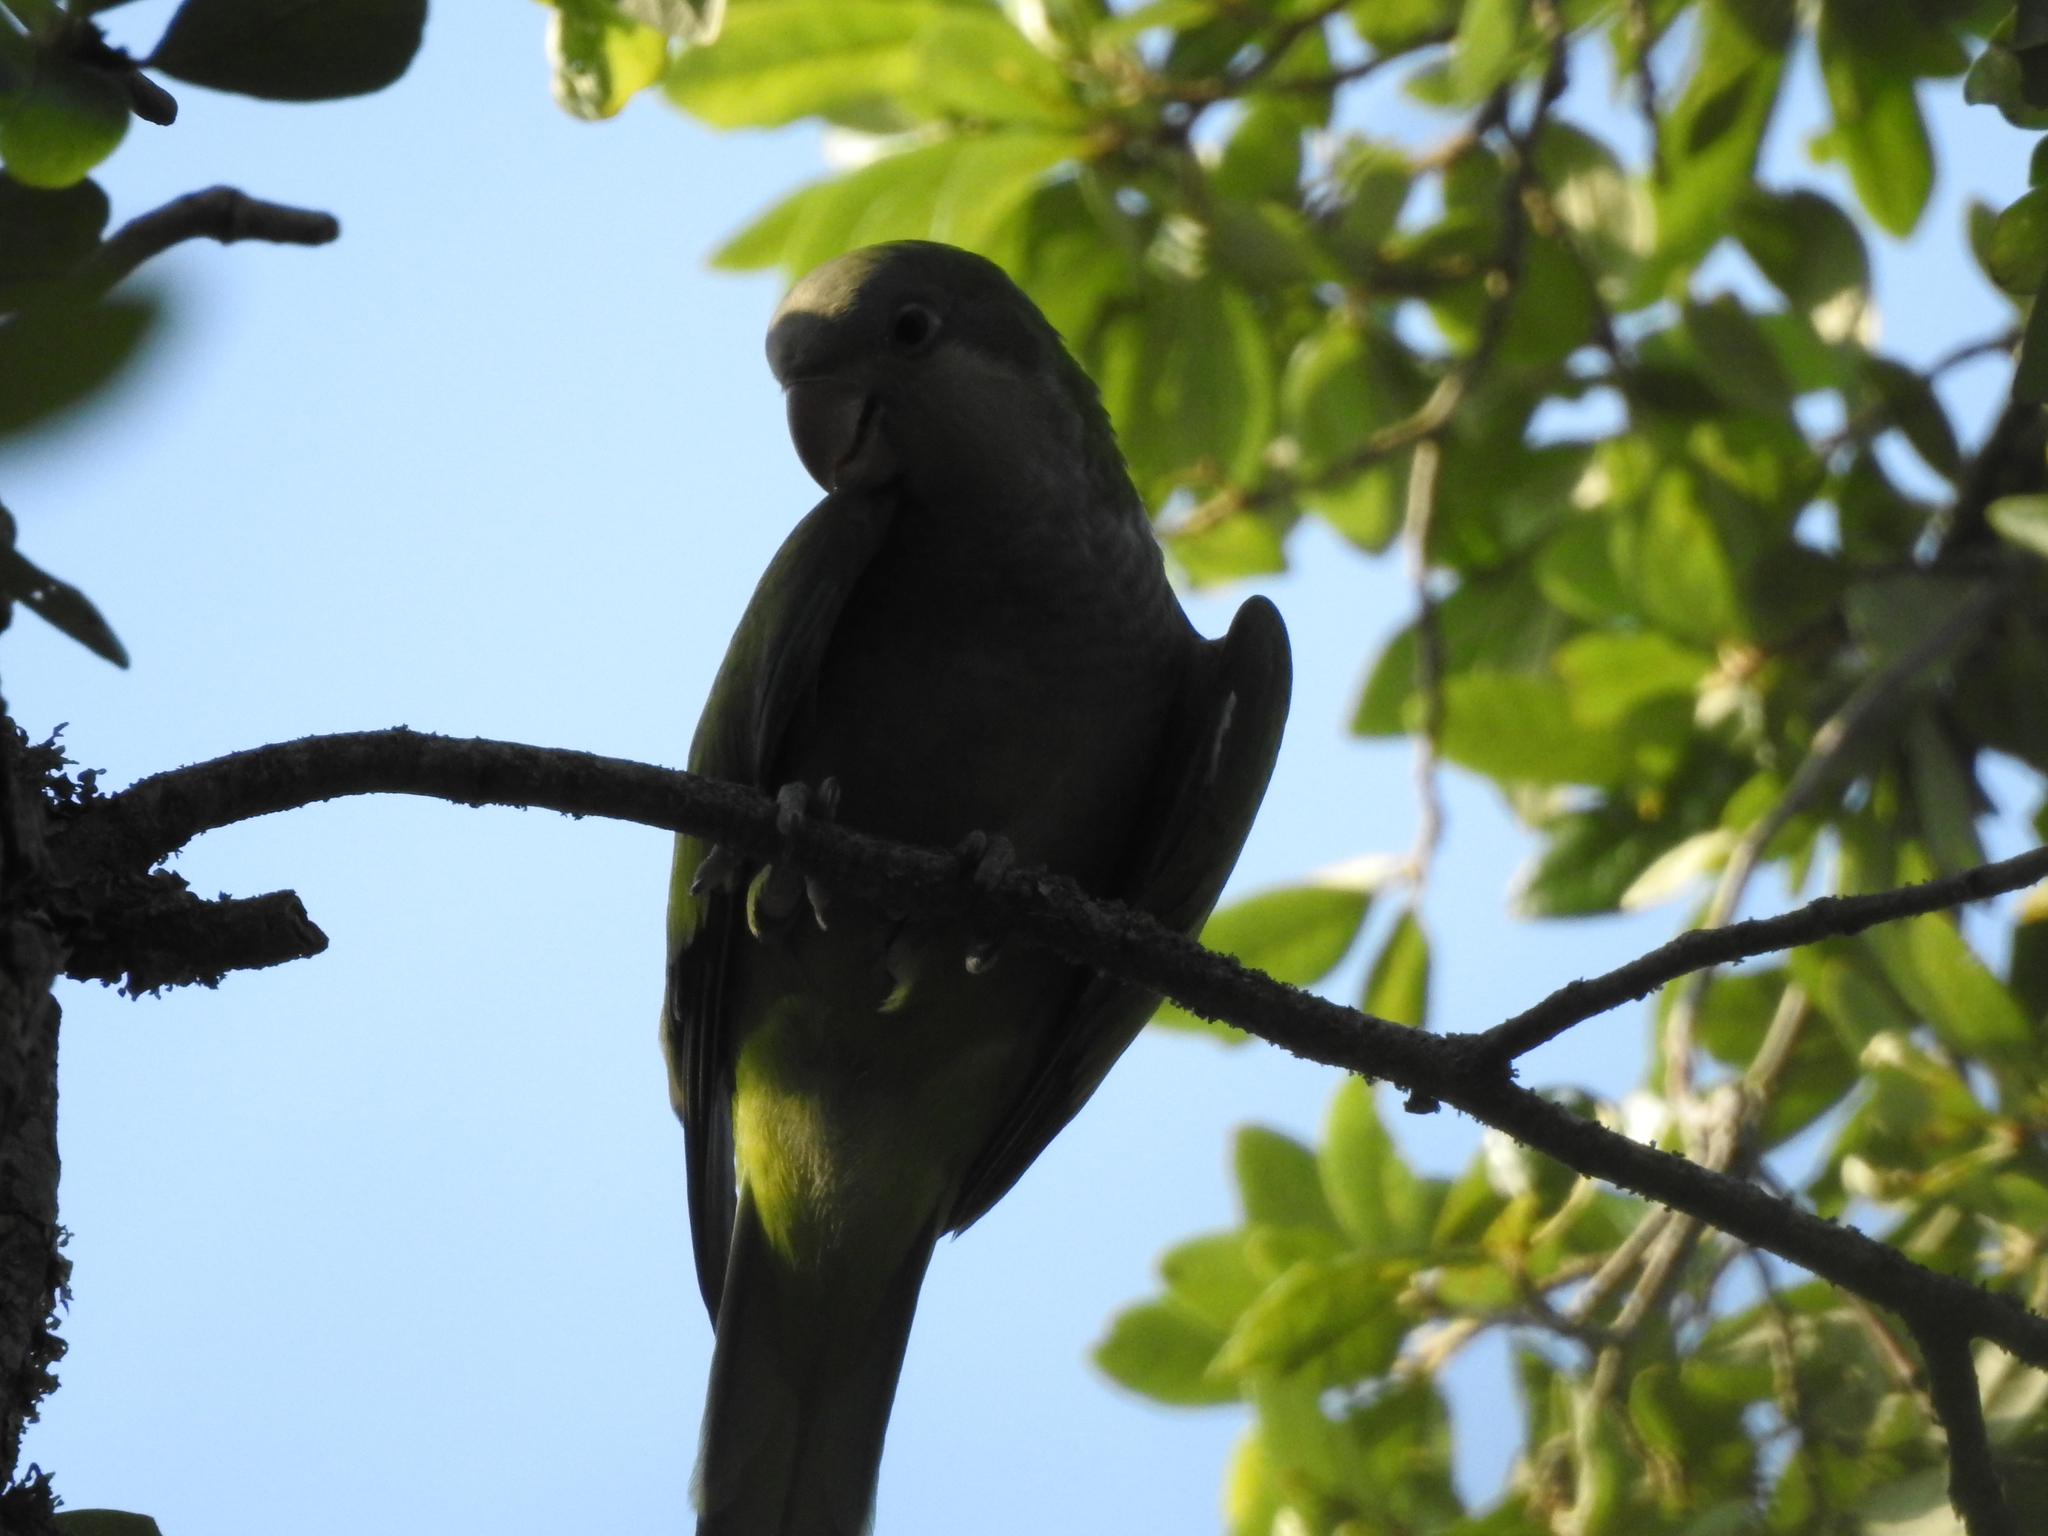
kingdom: Animalia
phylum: Chordata
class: Aves
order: Psittaciformes
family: Psittacidae
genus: Myiopsitta
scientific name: Myiopsitta monachus
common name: Monk parakeet
